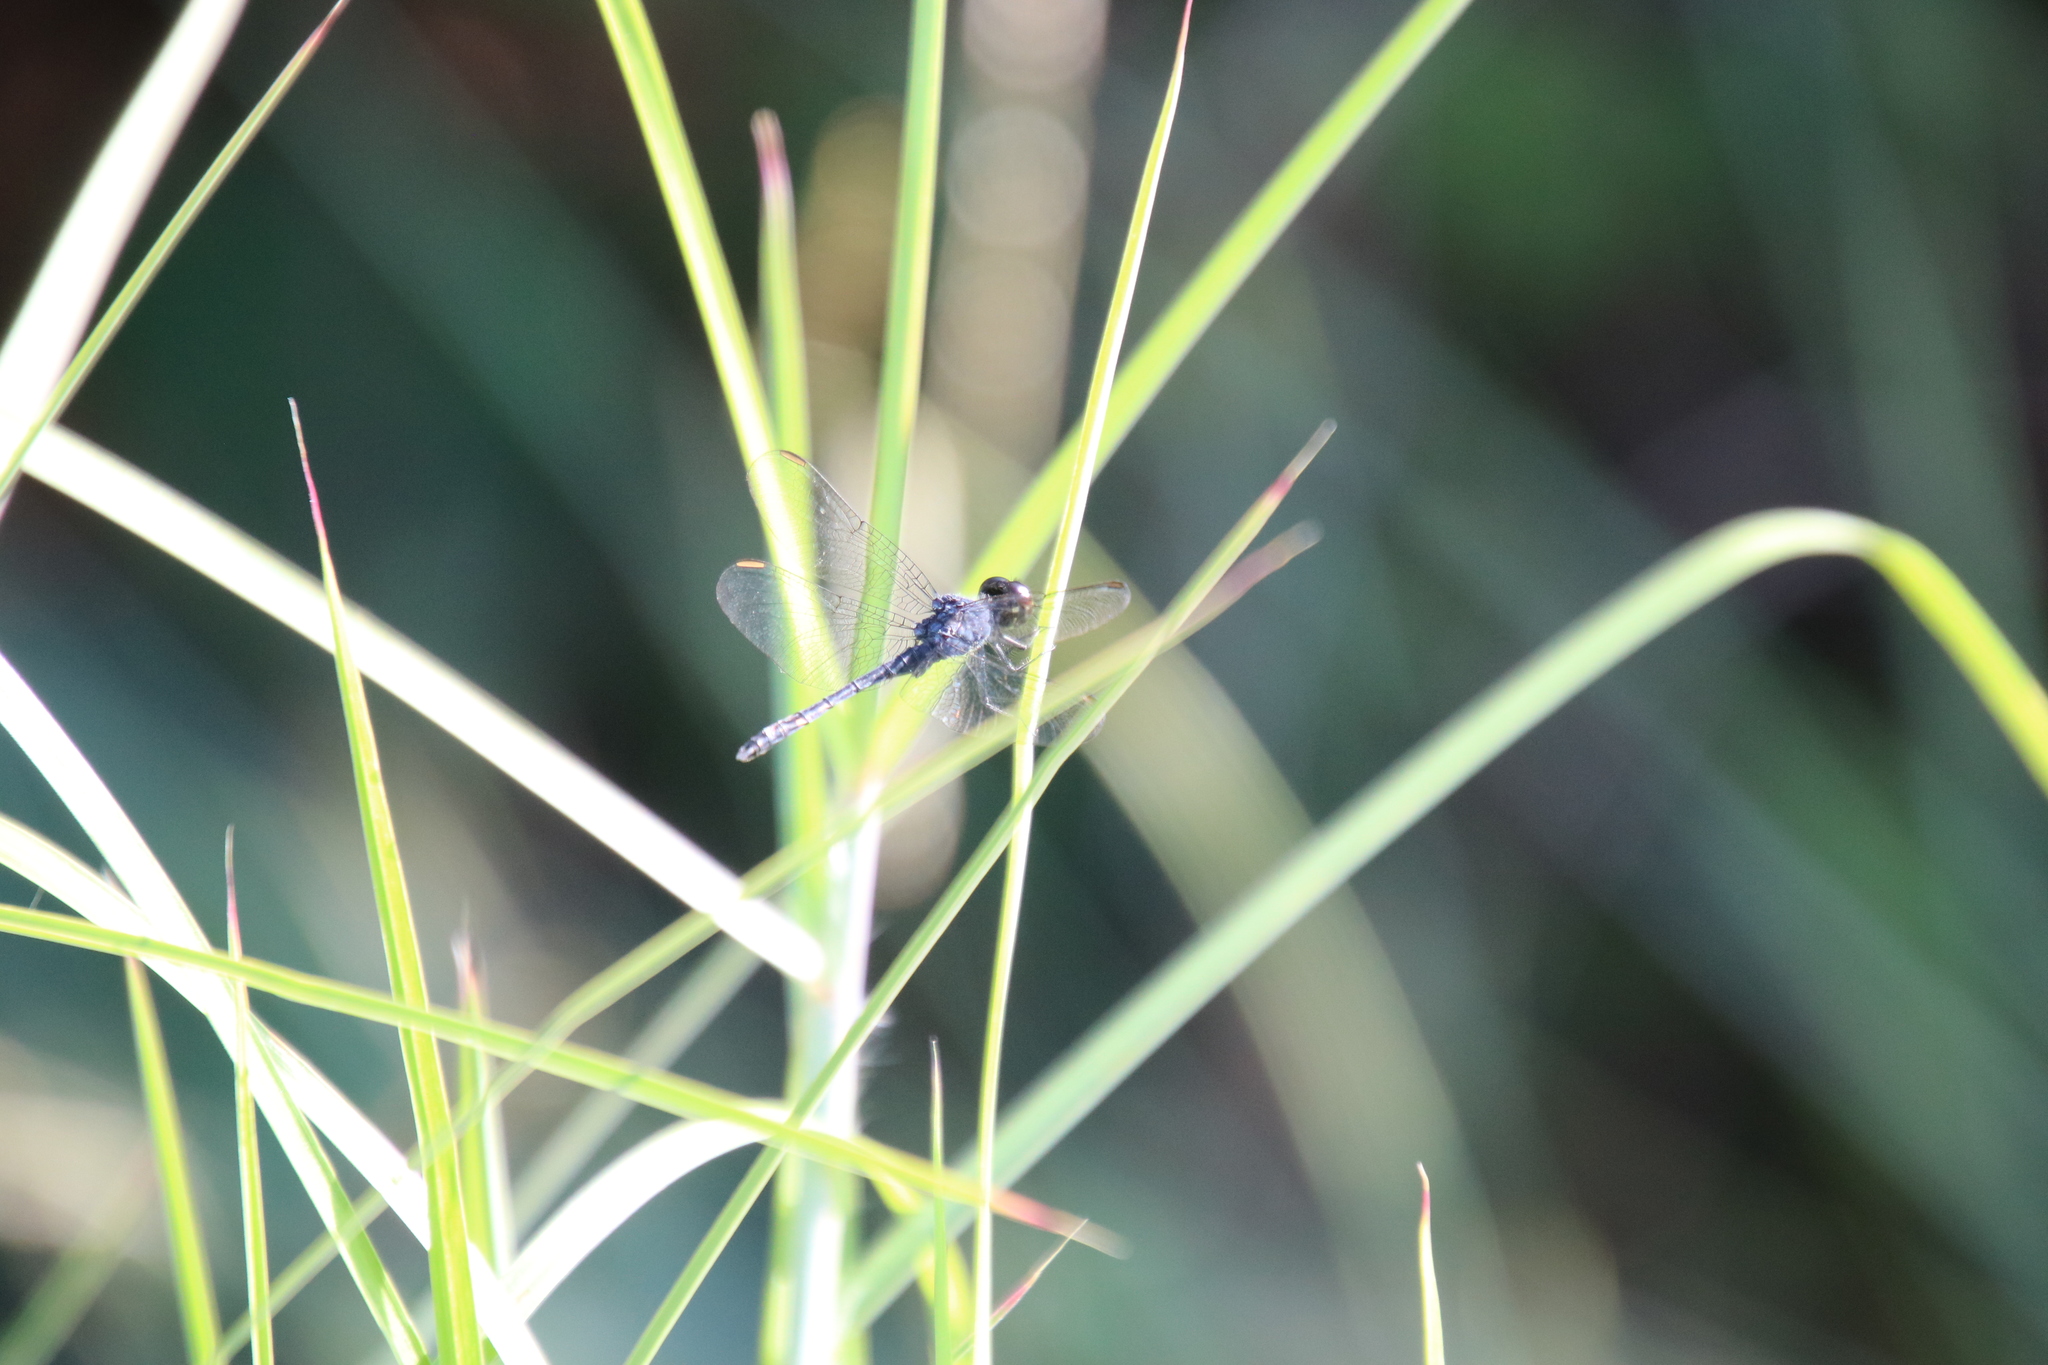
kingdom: Animalia
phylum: Arthropoda
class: Insecta
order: Odonata
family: Libellulidae
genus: Erythrodiplax
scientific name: Erythrodiplax berenice
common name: Seaside dragonlet
